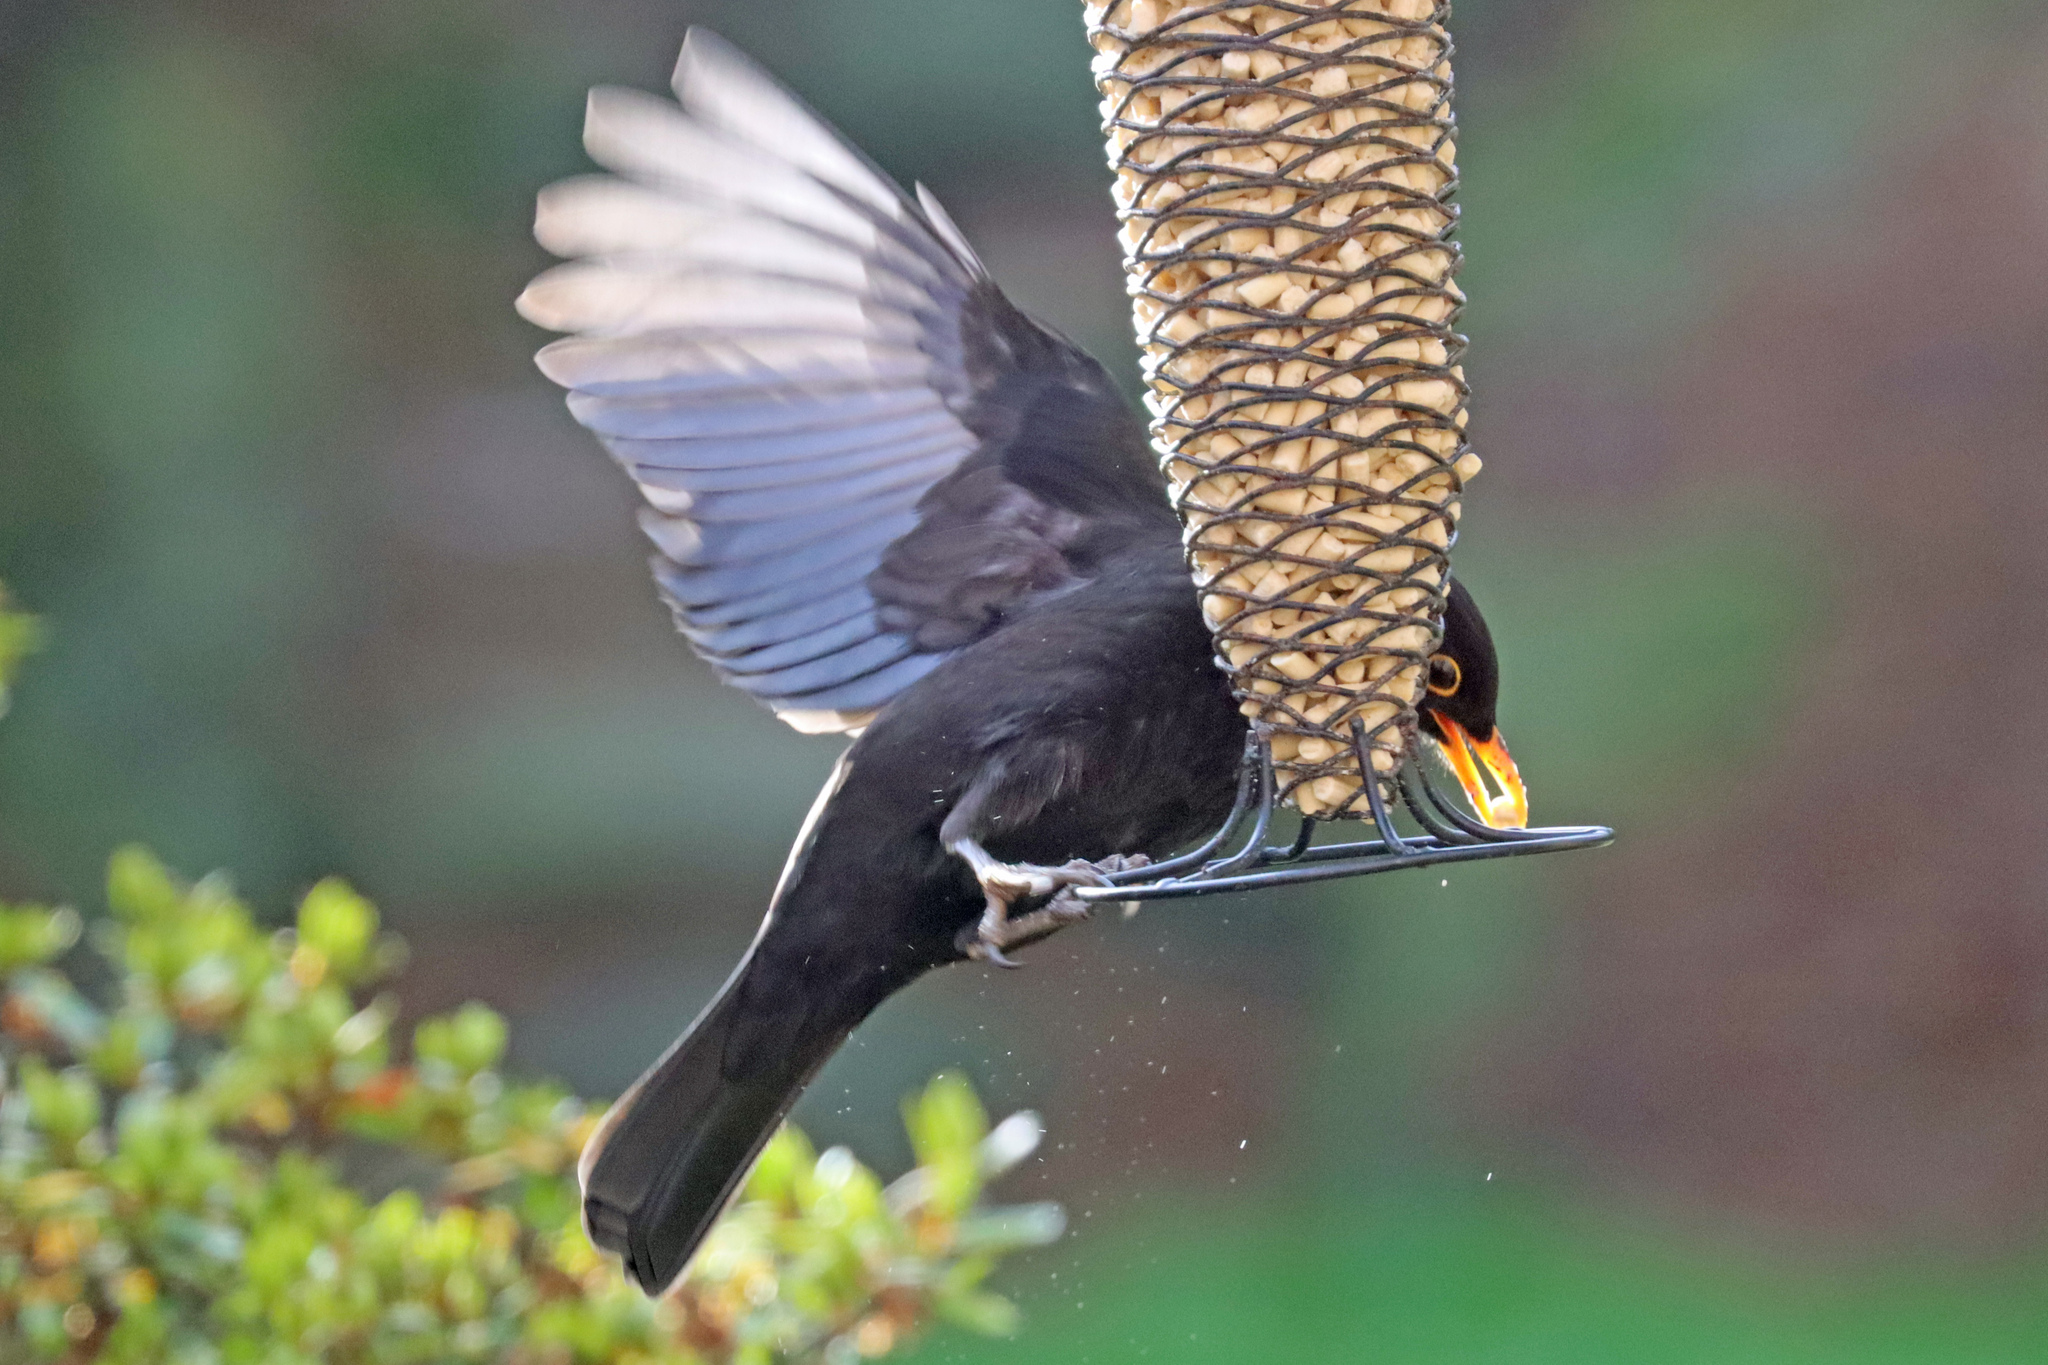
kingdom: Animalia
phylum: Chordata
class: Aves
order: Passeriformes
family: Turdidae
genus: Turdus
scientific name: Turdus merula
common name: Common blackbird
